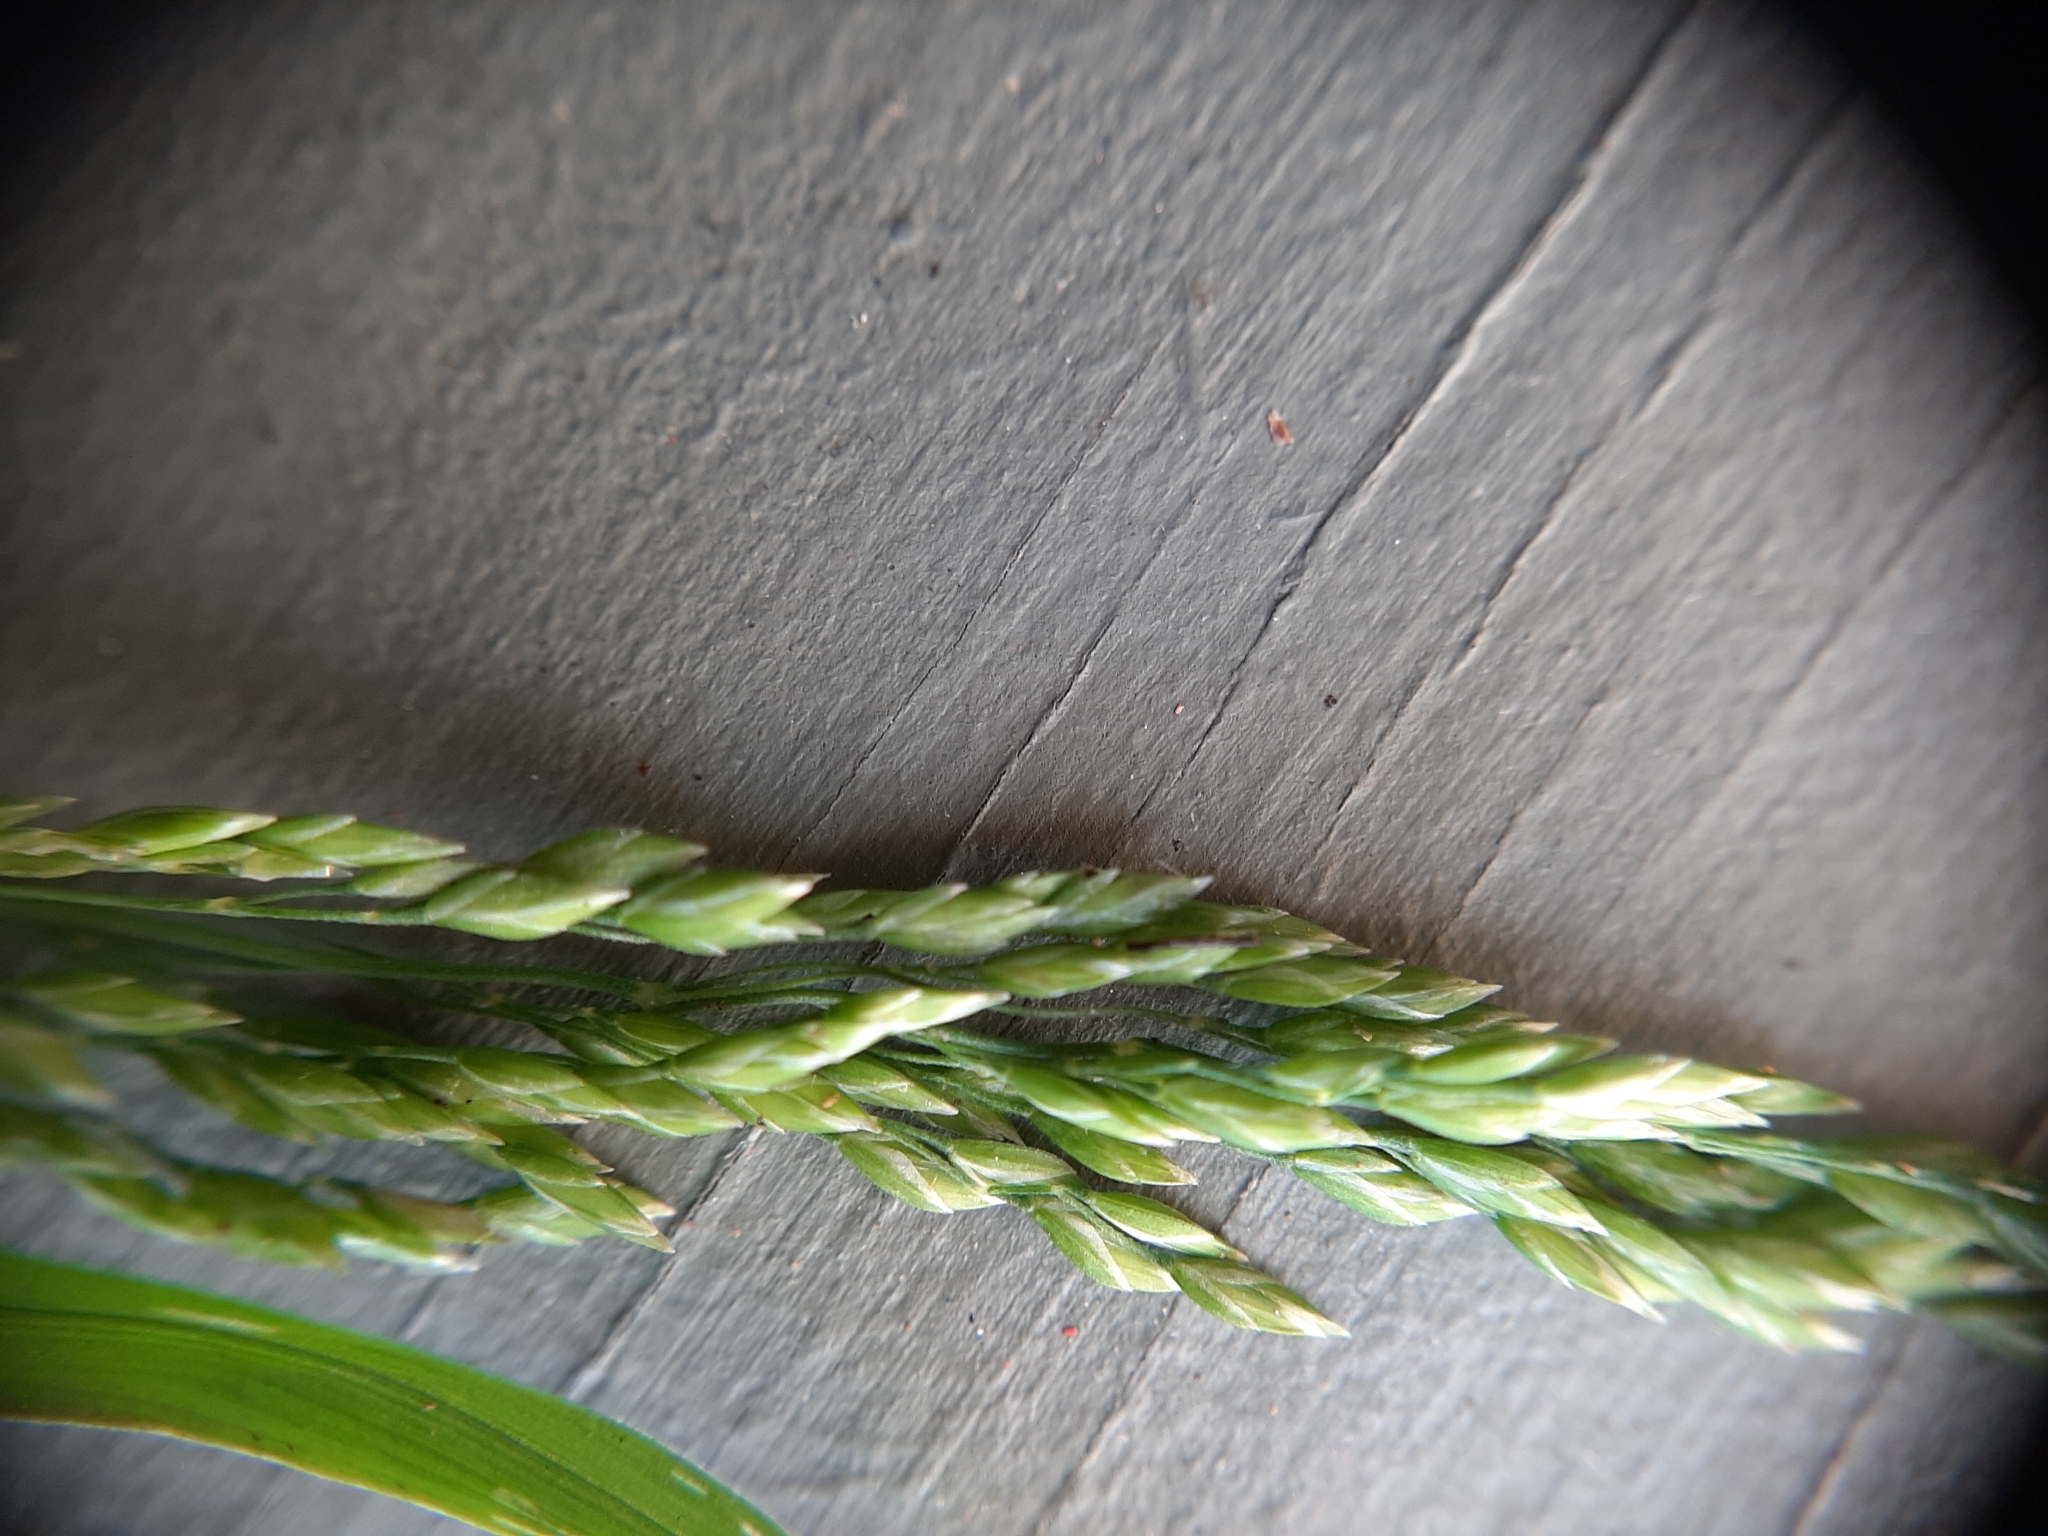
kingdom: Plantae
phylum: Tracheophyta
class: Liliopsida
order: Poales
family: Poaceae
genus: Poa
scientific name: Poa trivialis
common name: Rough bluegrass
